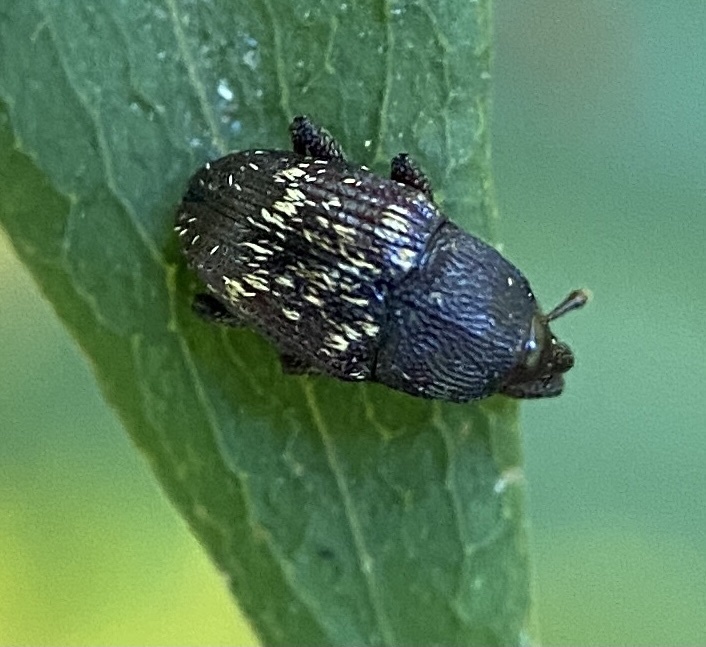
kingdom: Animalia
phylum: Arthropoda
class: Insecta
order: Coleoptera
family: Curculionidae
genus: Glyptobaris
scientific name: Glyptobaris lecontei
